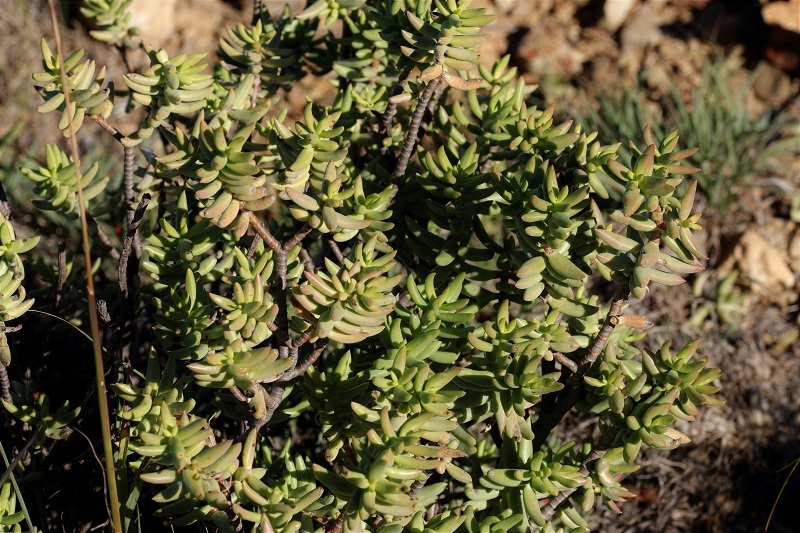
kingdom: Plantae
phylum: Tracheophyta
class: Magnoliopsida
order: Saxifragales
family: Crassulaceae
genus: Crassula
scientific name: Crassula tetragona
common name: Pygmyweed
